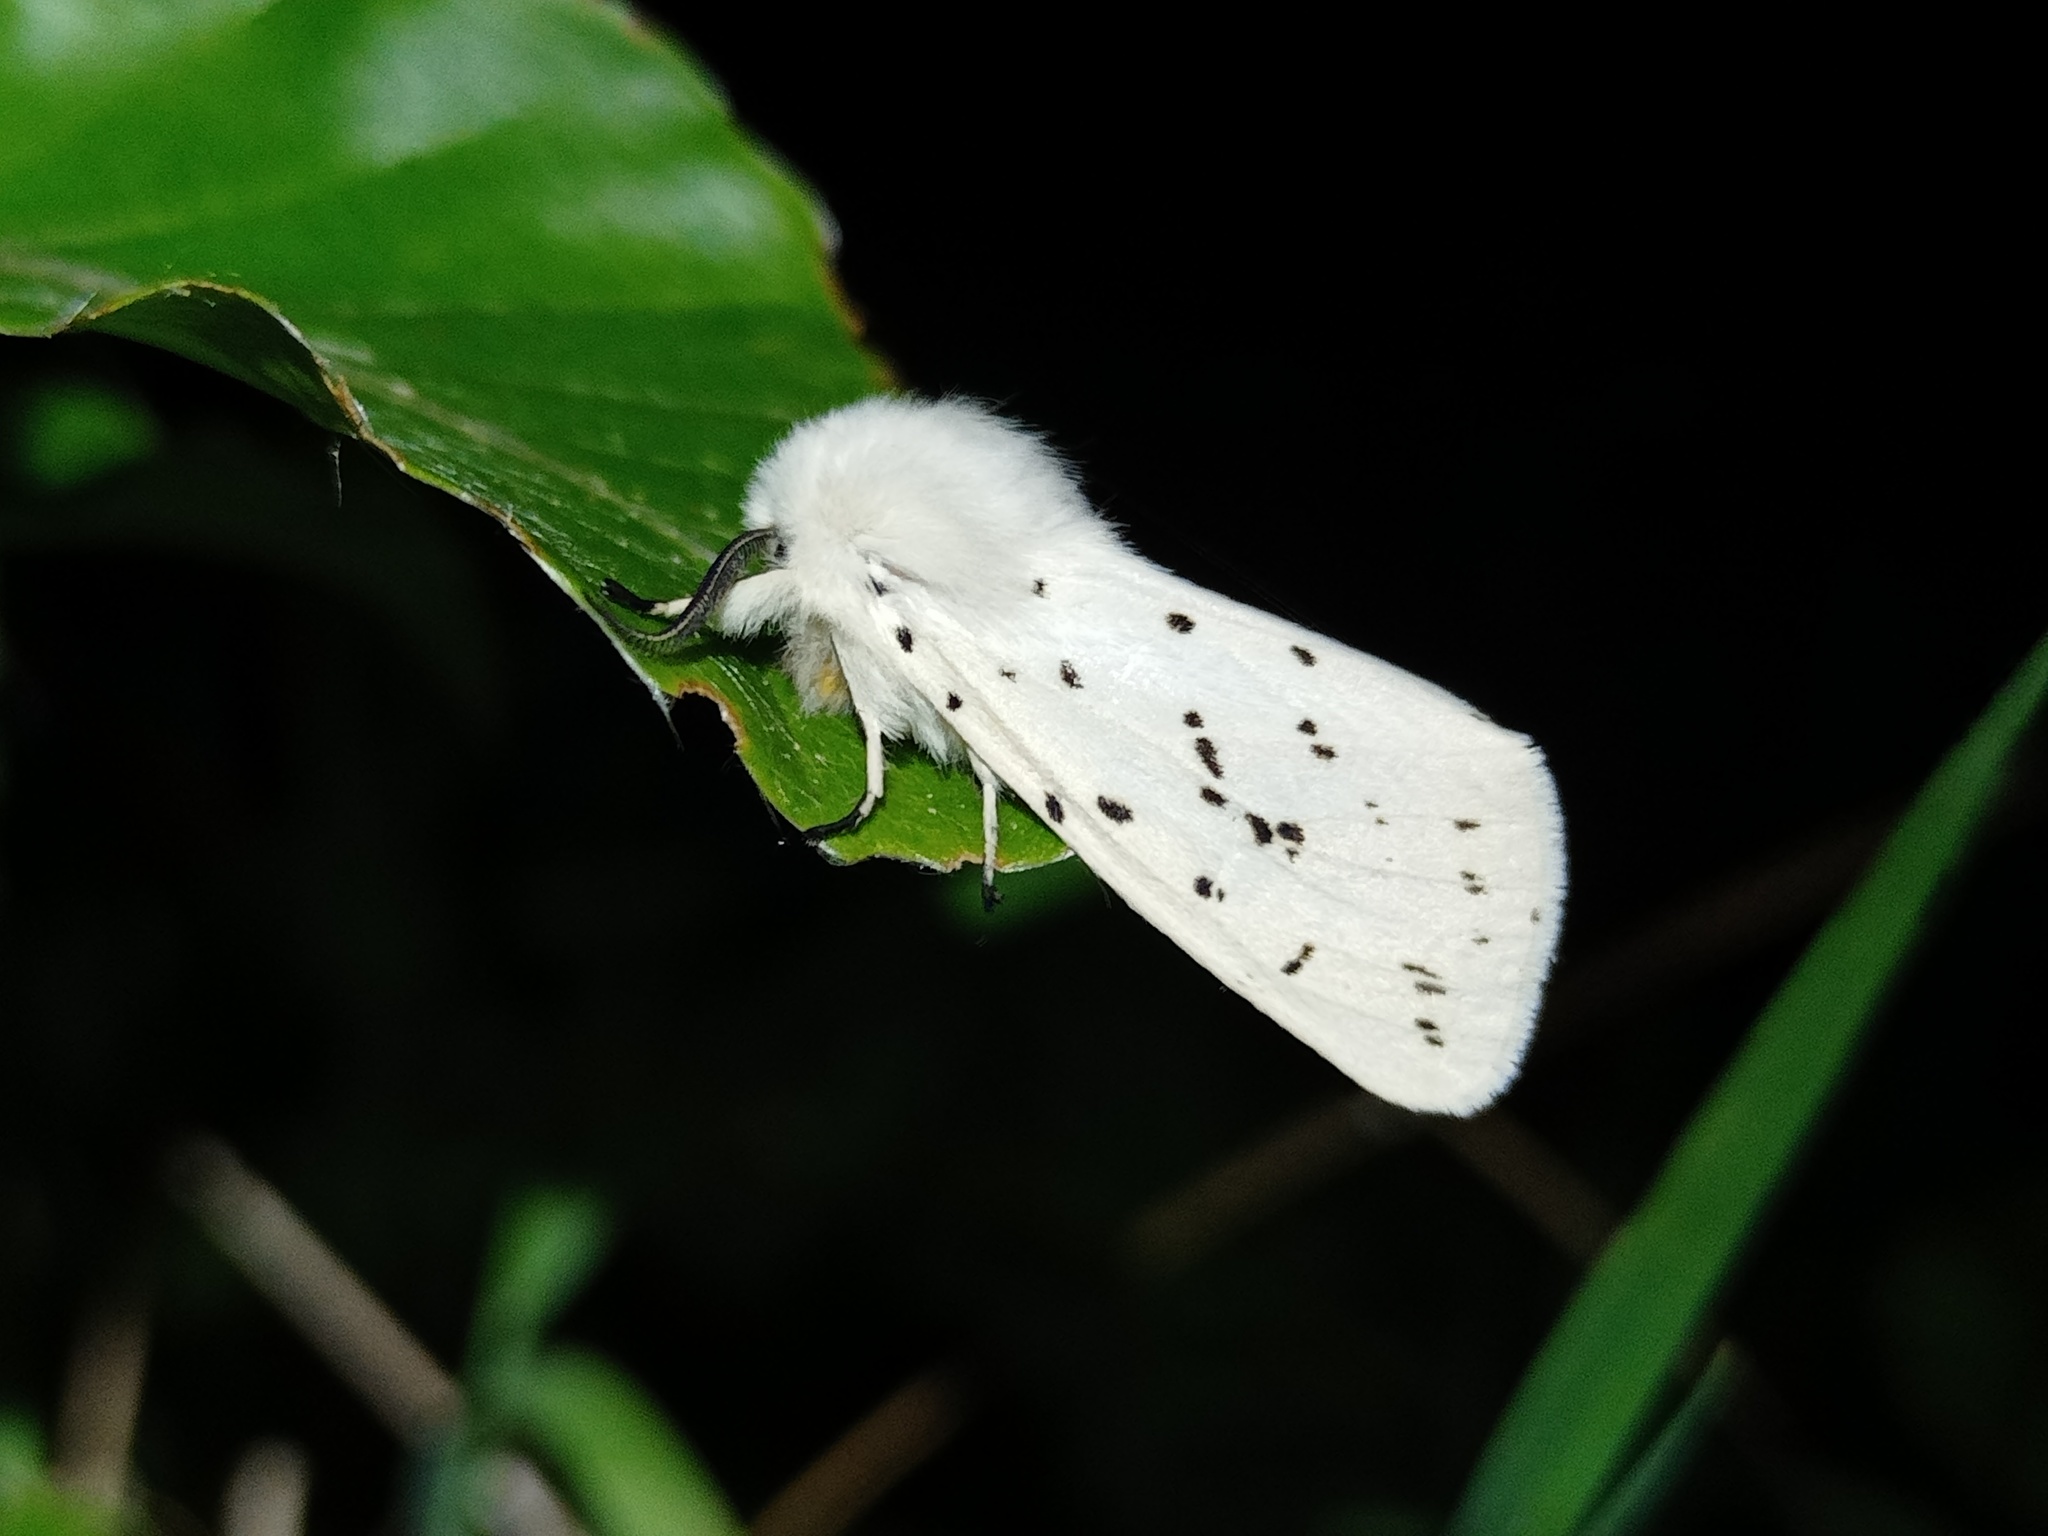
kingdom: Animalia
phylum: Arthropoda
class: Insecta
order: Lepidoptera
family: Erebidae
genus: Spilosoma
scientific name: Spilosoma lubricipeda
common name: White ermine
